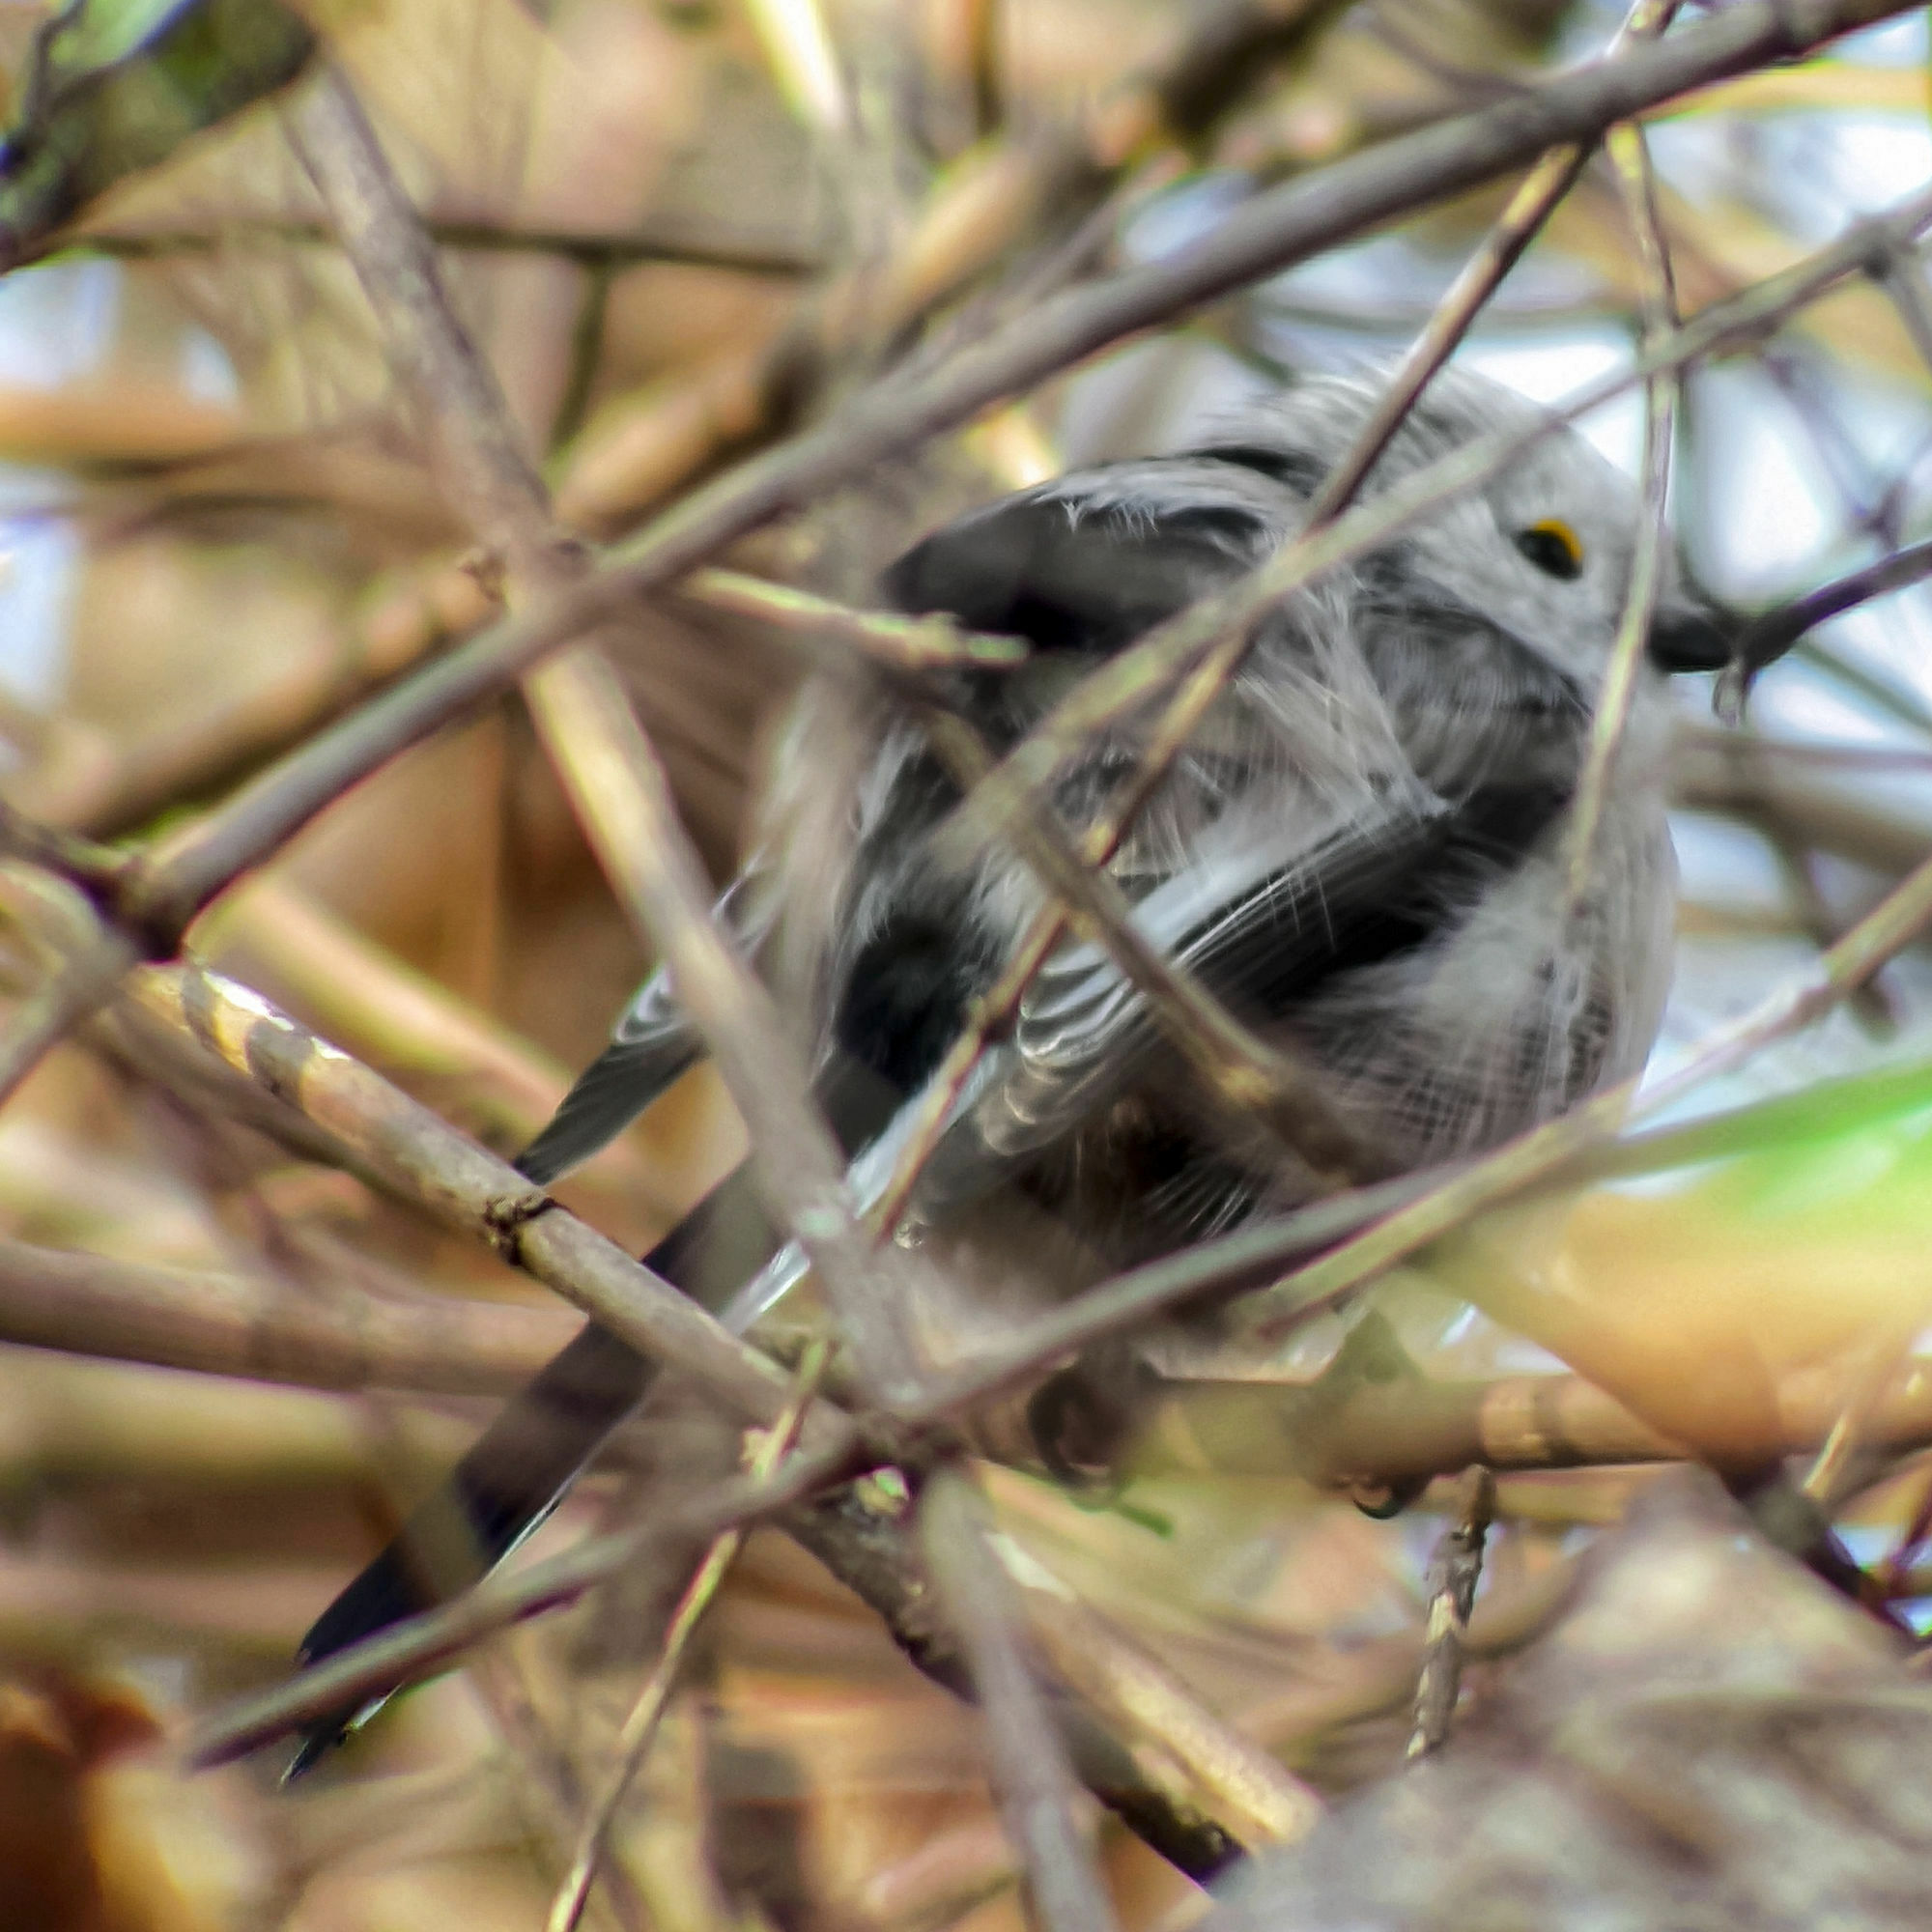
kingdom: Animalia
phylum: Chordata
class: Aves
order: Passeriformes
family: Aegithalidae
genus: Aegithalos
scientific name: Aegithalos caudatus
